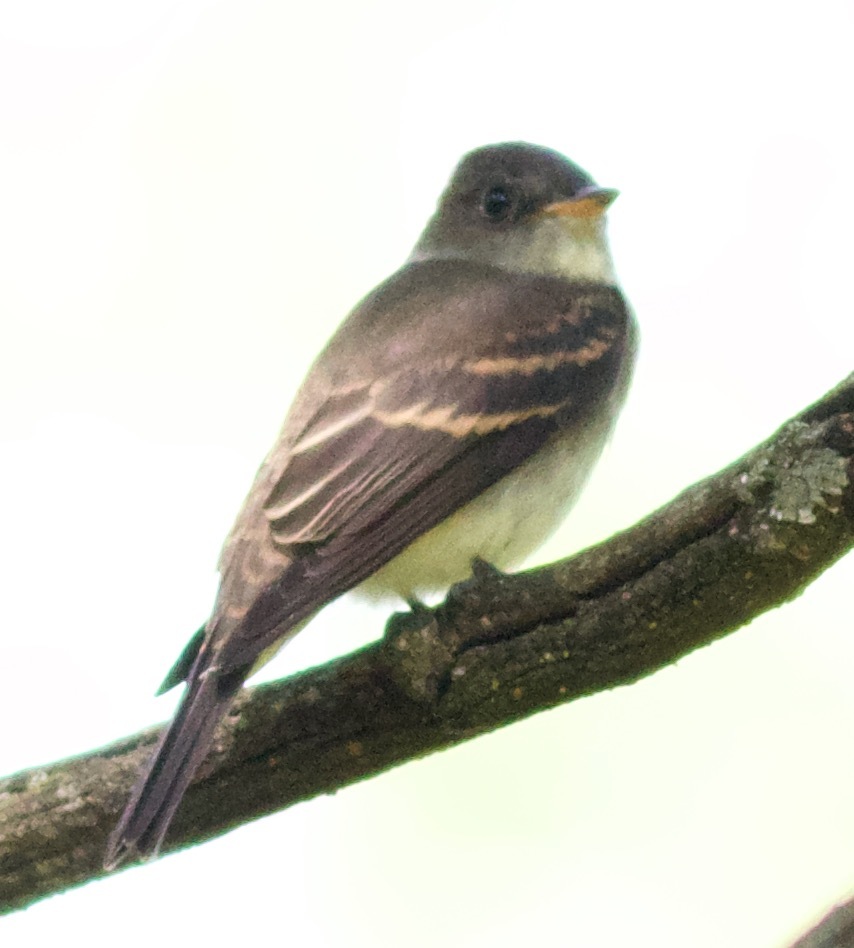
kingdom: Animalia
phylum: Chordata
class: Aves
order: Passeriformes
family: Tyrannidae
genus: Contopus
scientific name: Contopus virens
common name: Eastern wood-pewee
